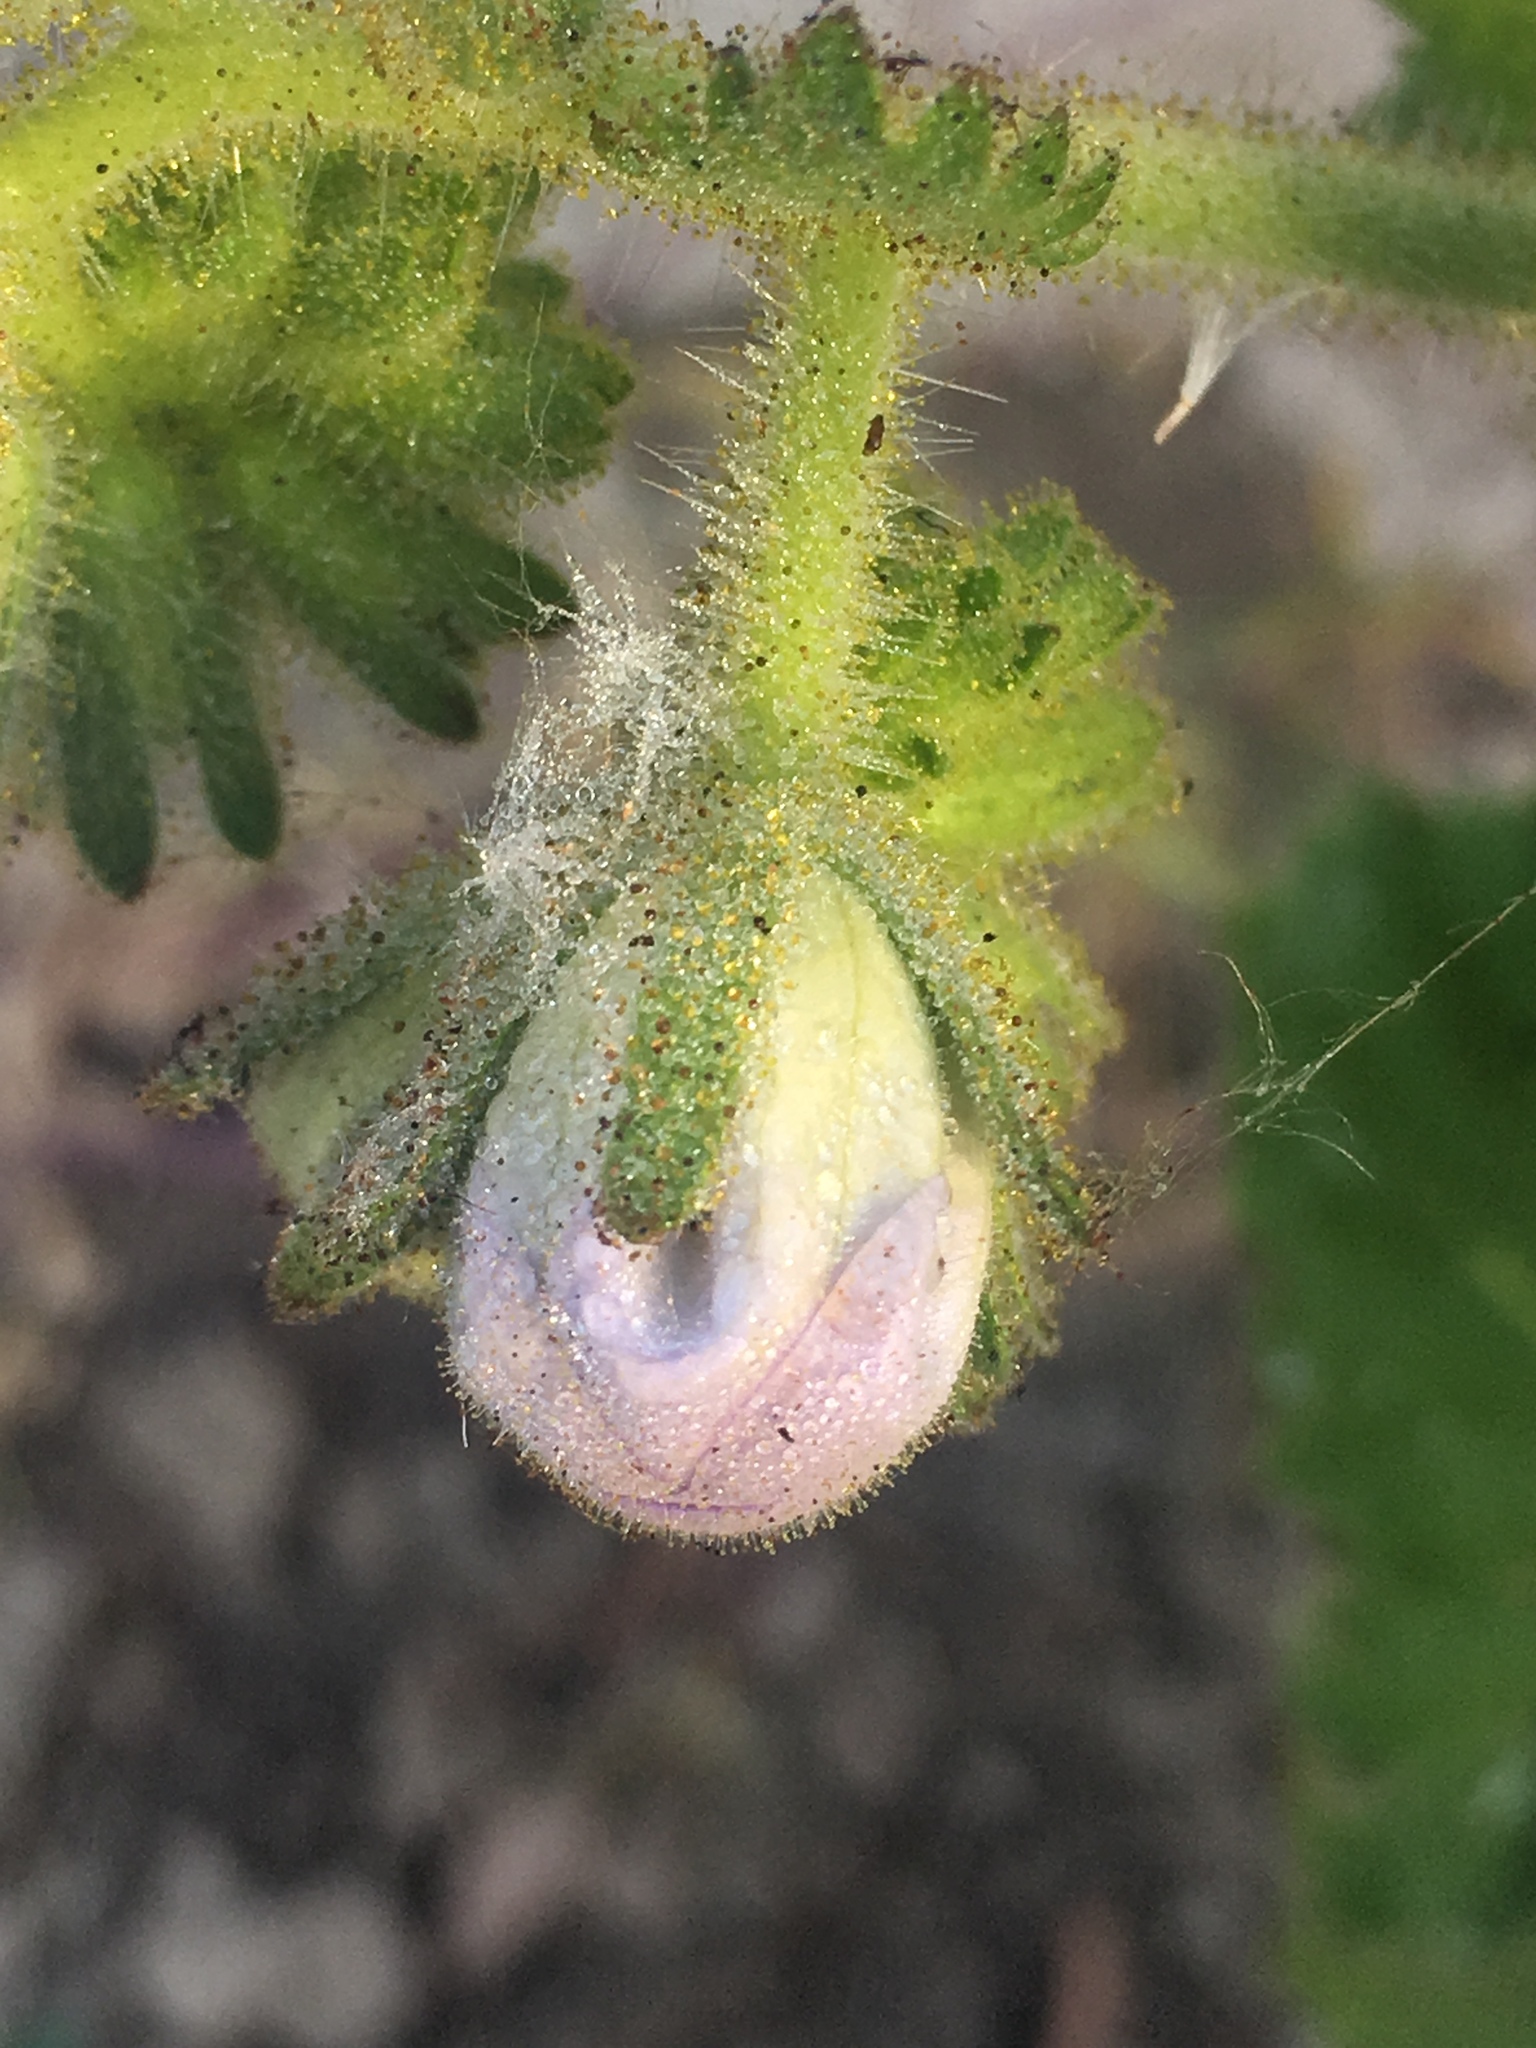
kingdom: Plantae
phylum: Tracheophyta
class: Magnoliopsida
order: Boraginales
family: Hydrophyllaceae
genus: Phacelia
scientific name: Phacelia grandiflora
